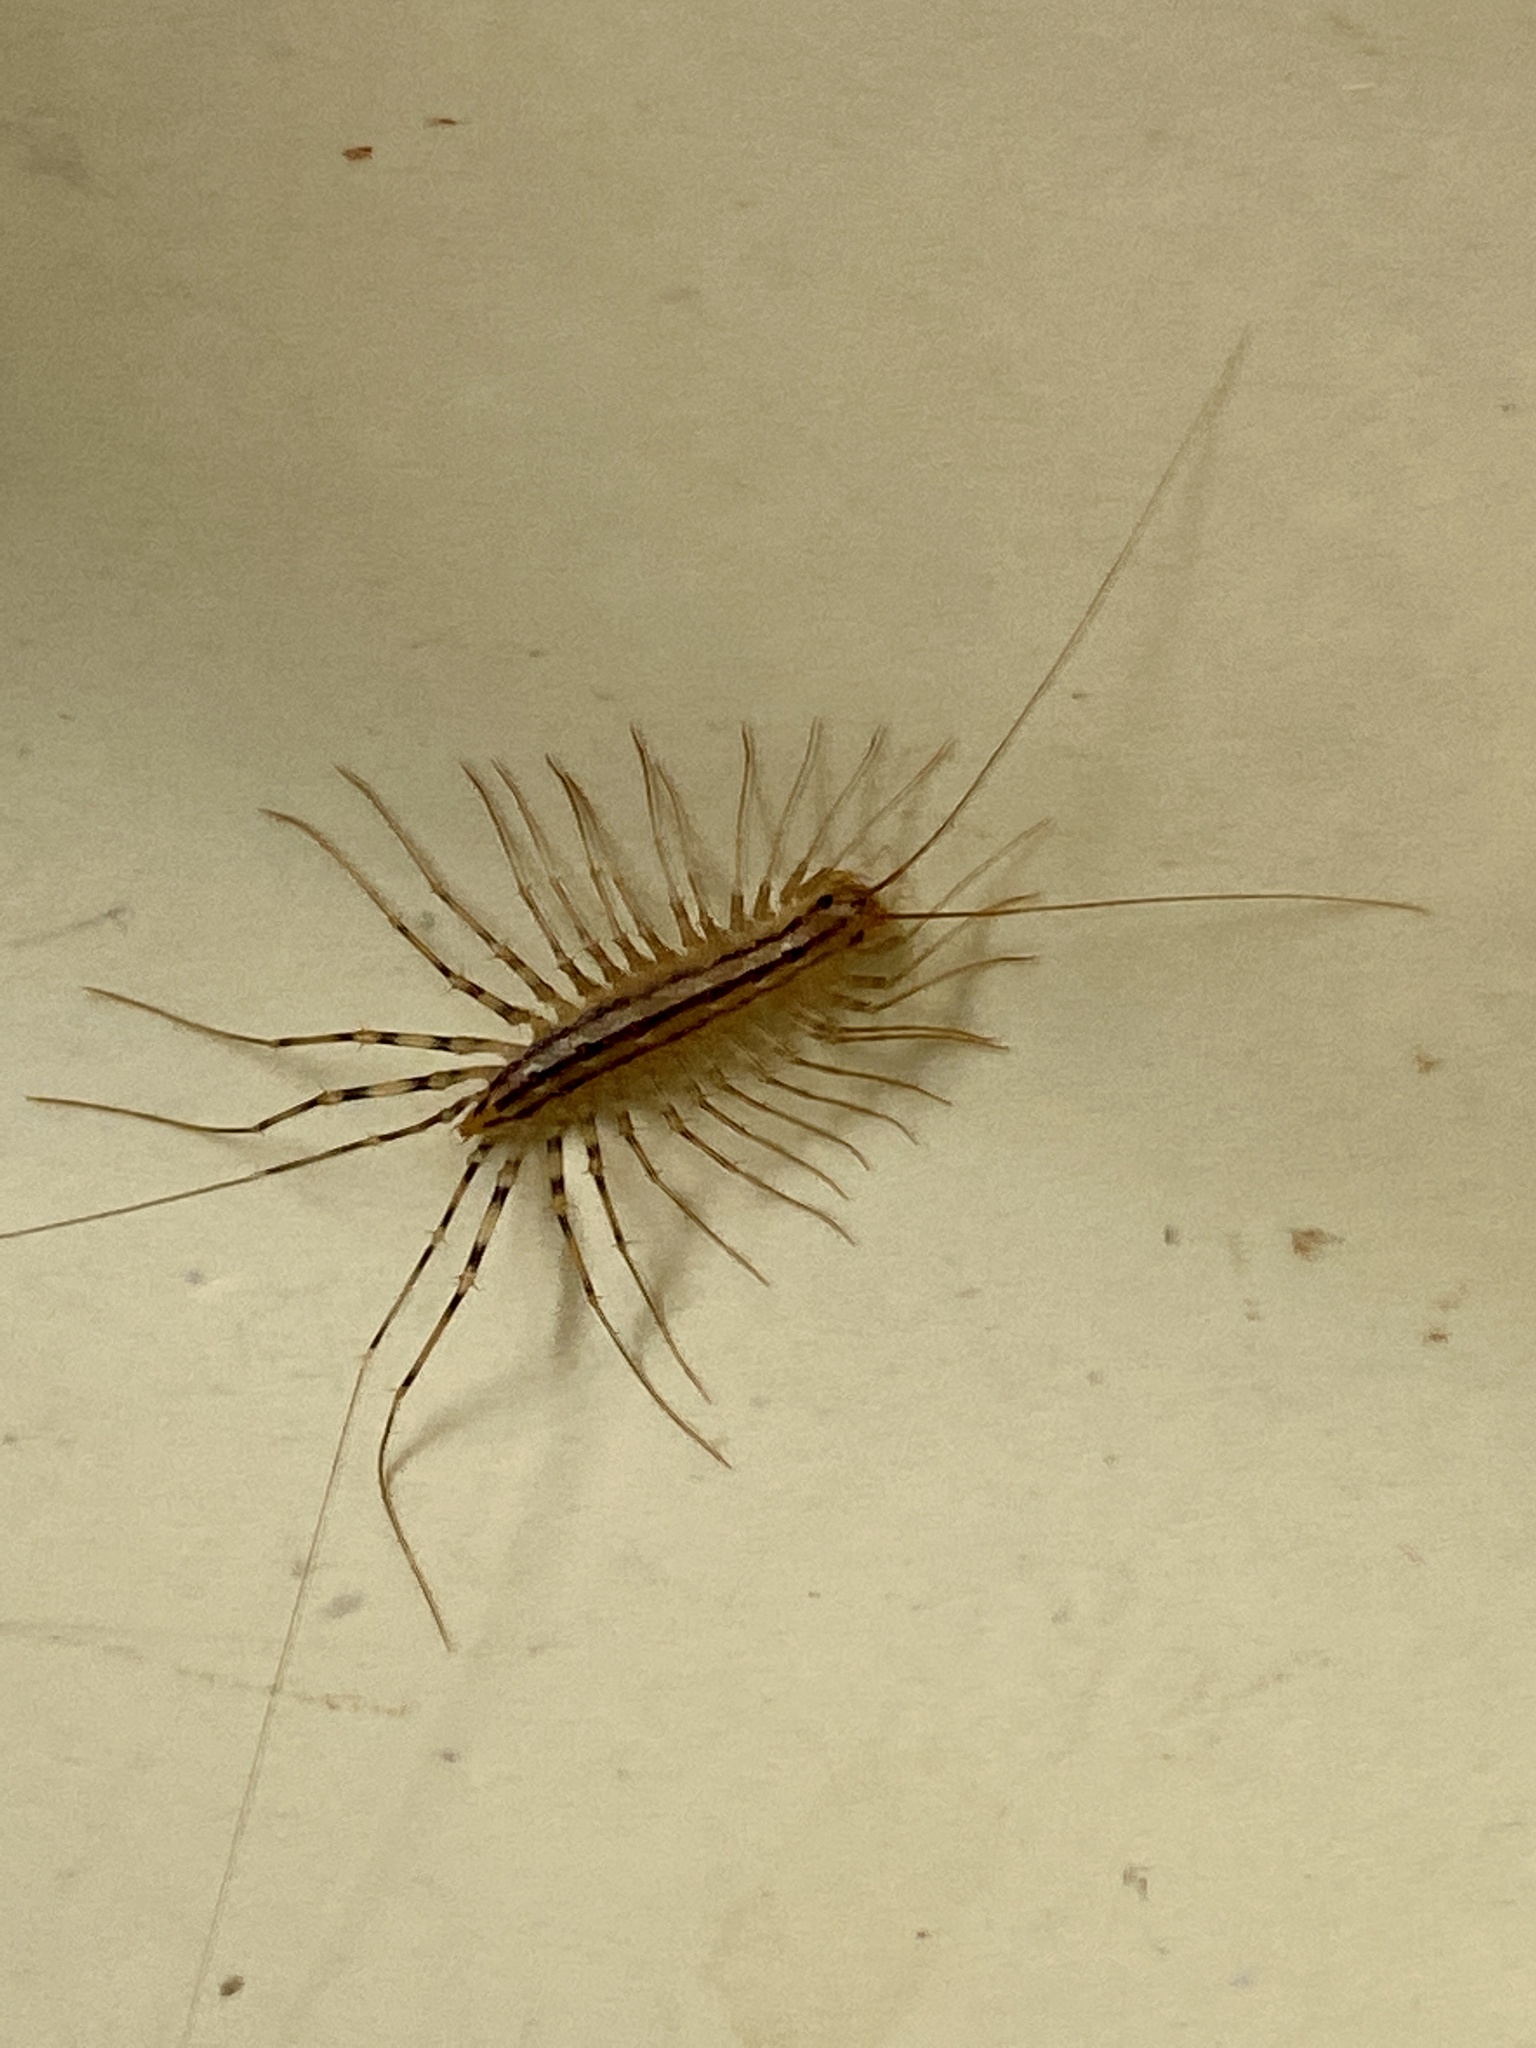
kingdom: Animalia
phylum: Arthropoda
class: Chilopoda
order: Scutigeromorpha
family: Scutigeridae
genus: Scutigera
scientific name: Scutigera coleoptrata
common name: House centipede
